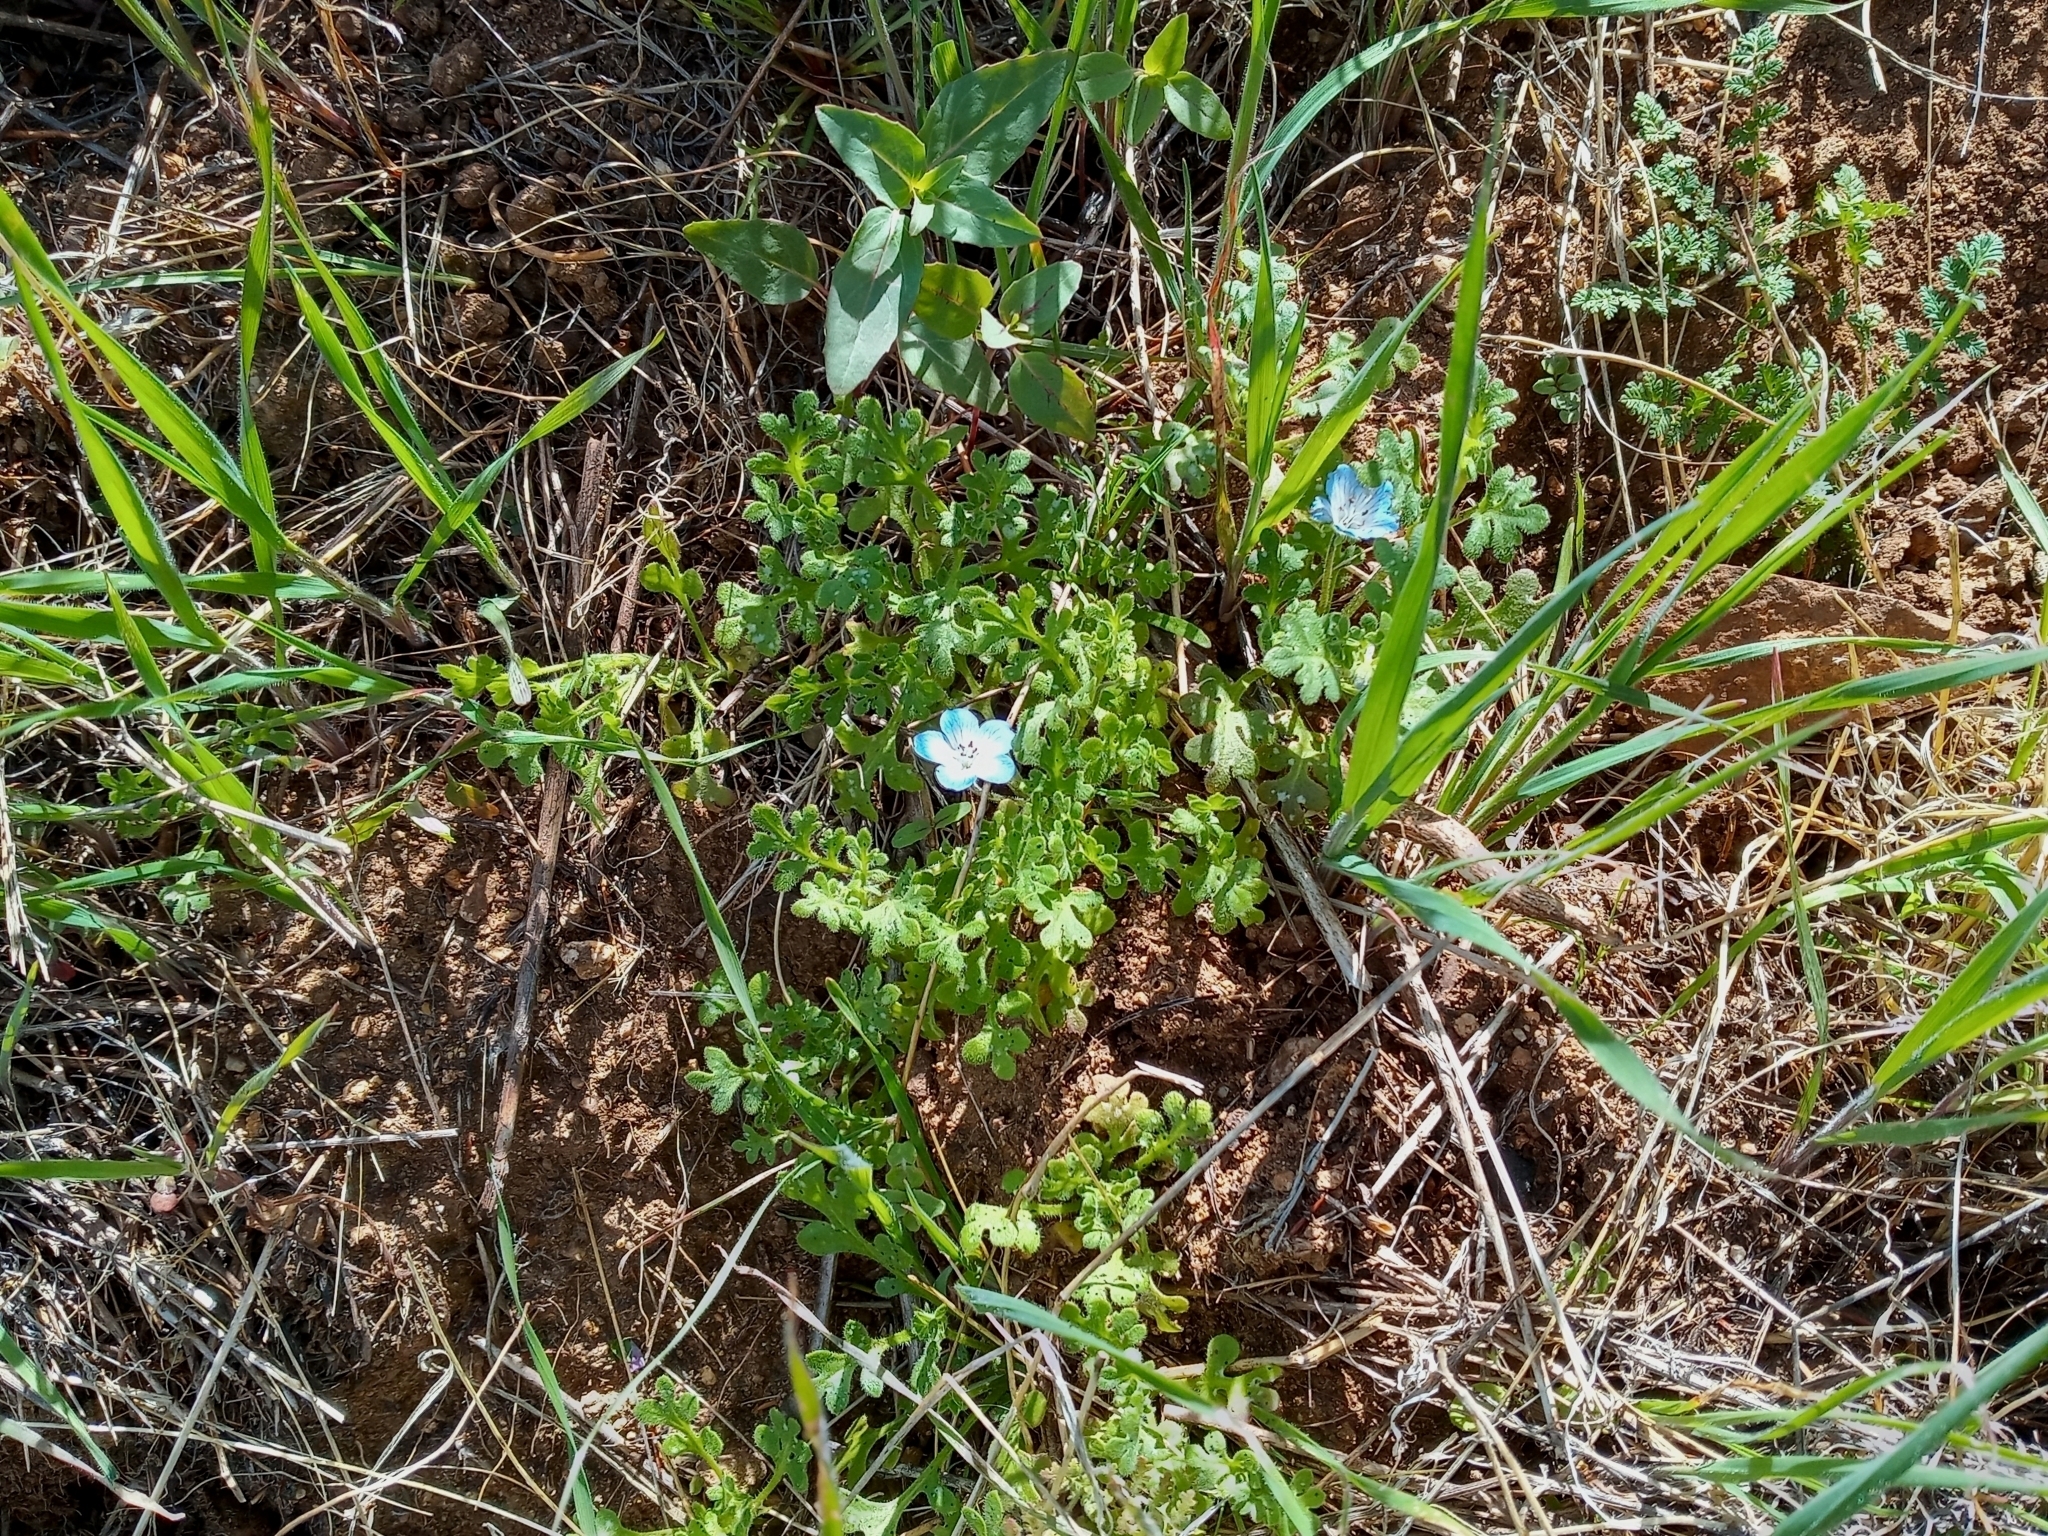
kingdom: Plantae
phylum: Tracheophyta
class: Magnoliopsida
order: Boraginales
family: Hydrophyllaceae
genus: Nemophila
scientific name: Nemophila menziesii
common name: Baby's-blue-eyes
